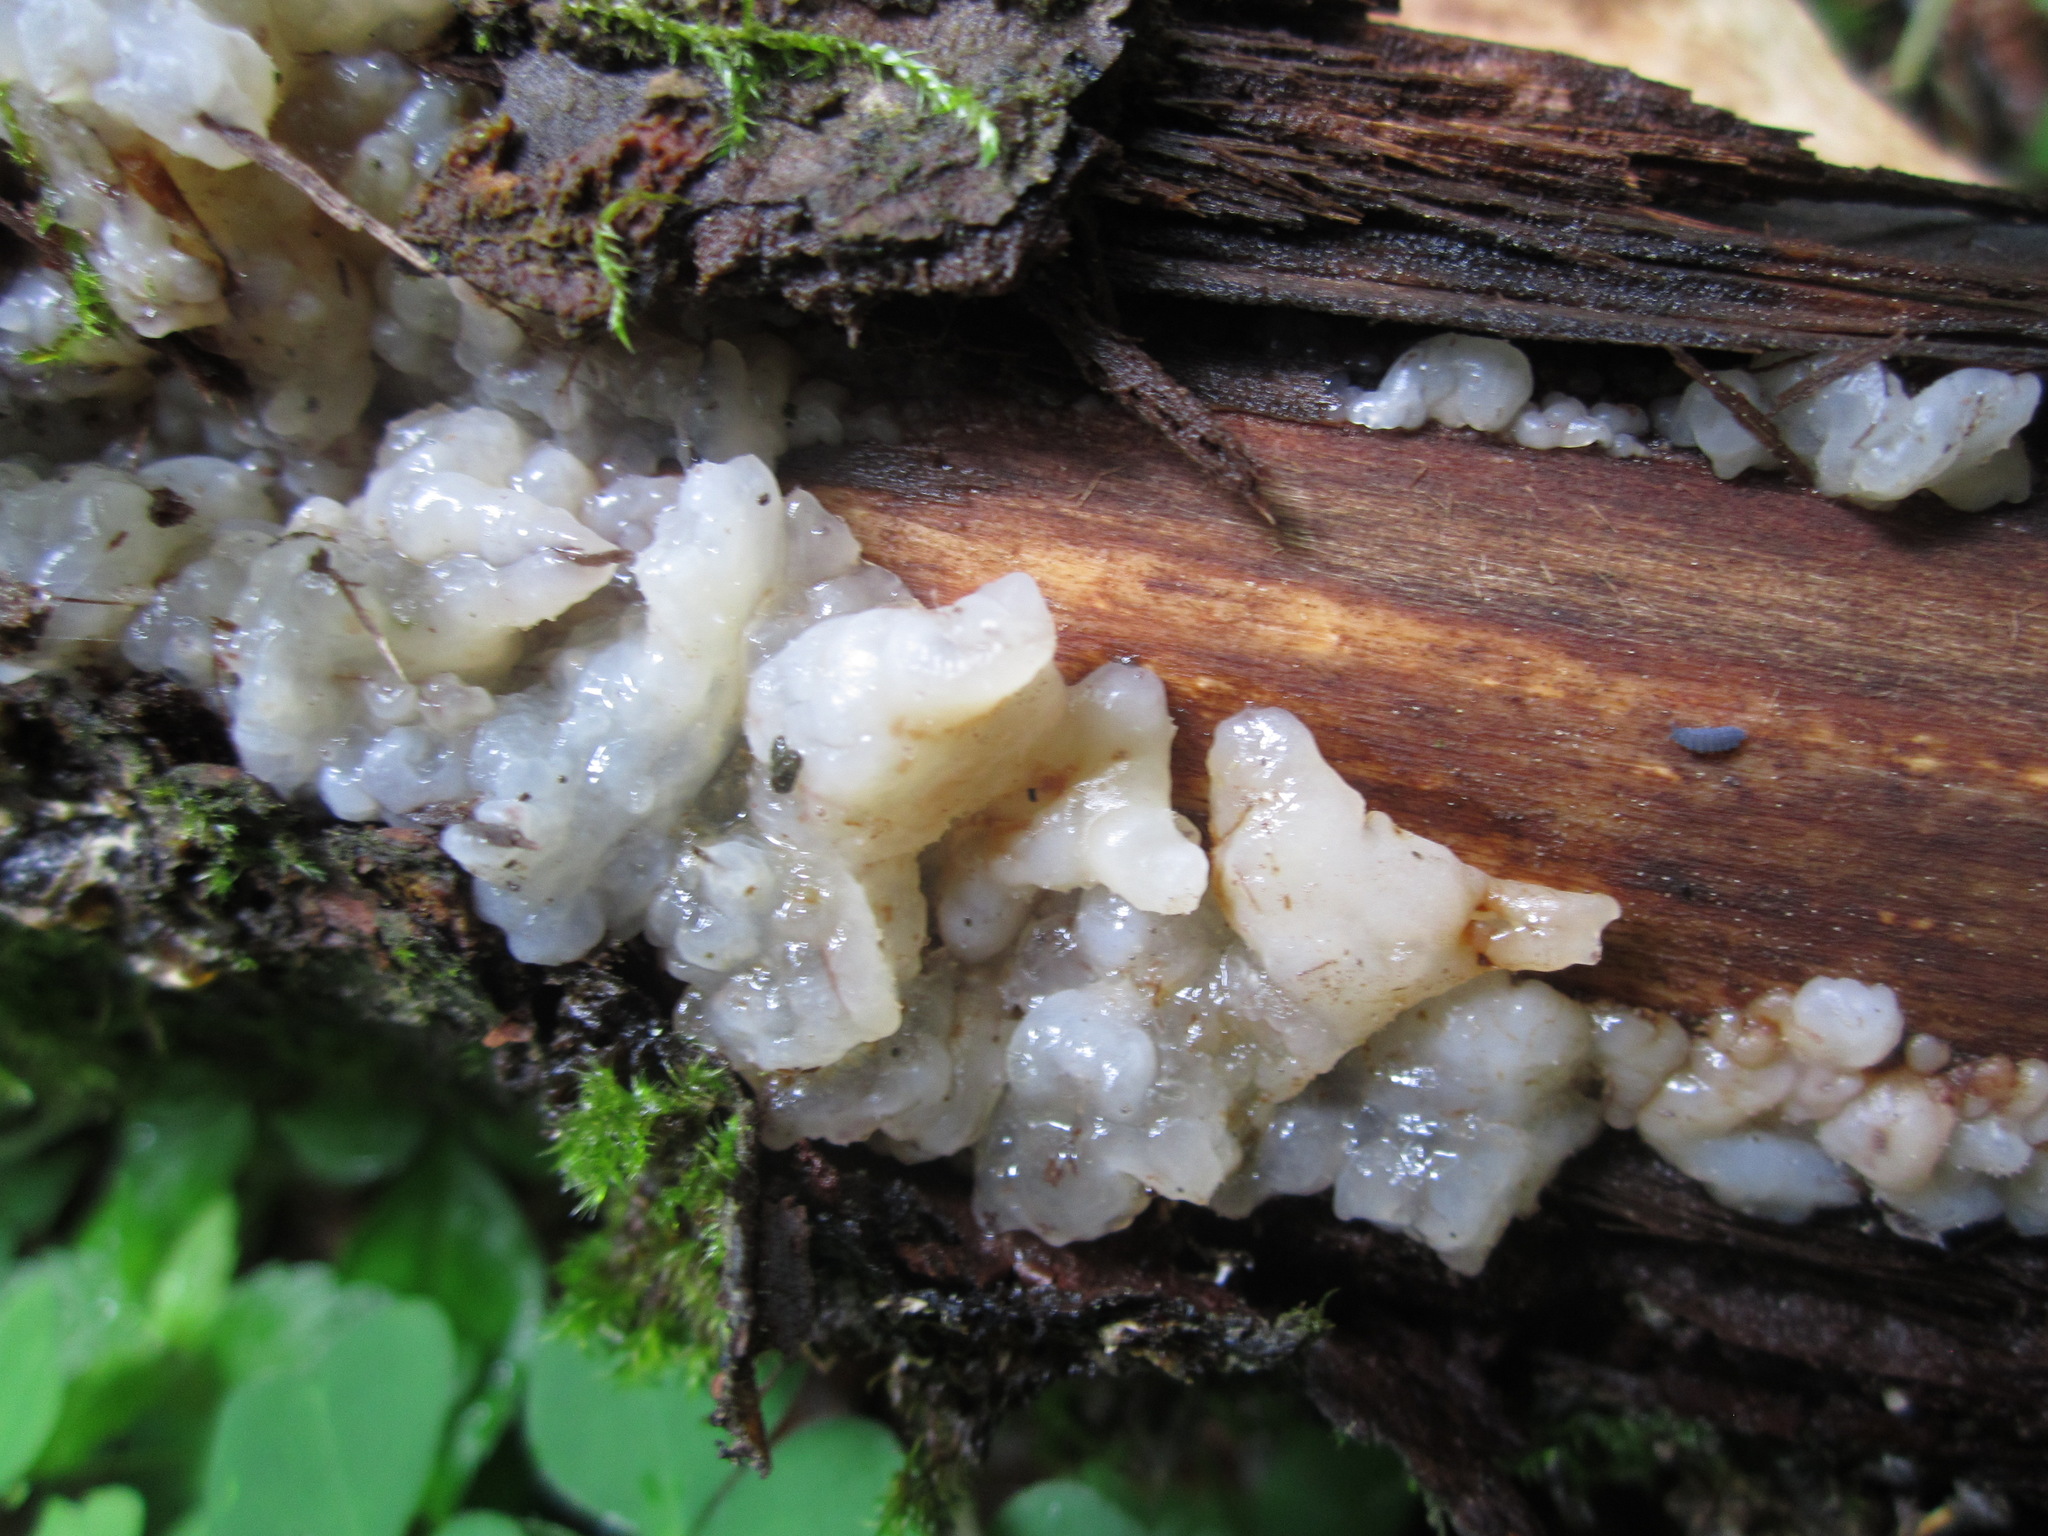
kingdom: Fungi
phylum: Basidiomycota
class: Agaricomycetes
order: Auriculariales
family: Hyaloriaceae
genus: Myxarium
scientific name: Myxarium nucleatum
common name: Crystal brain fungus
